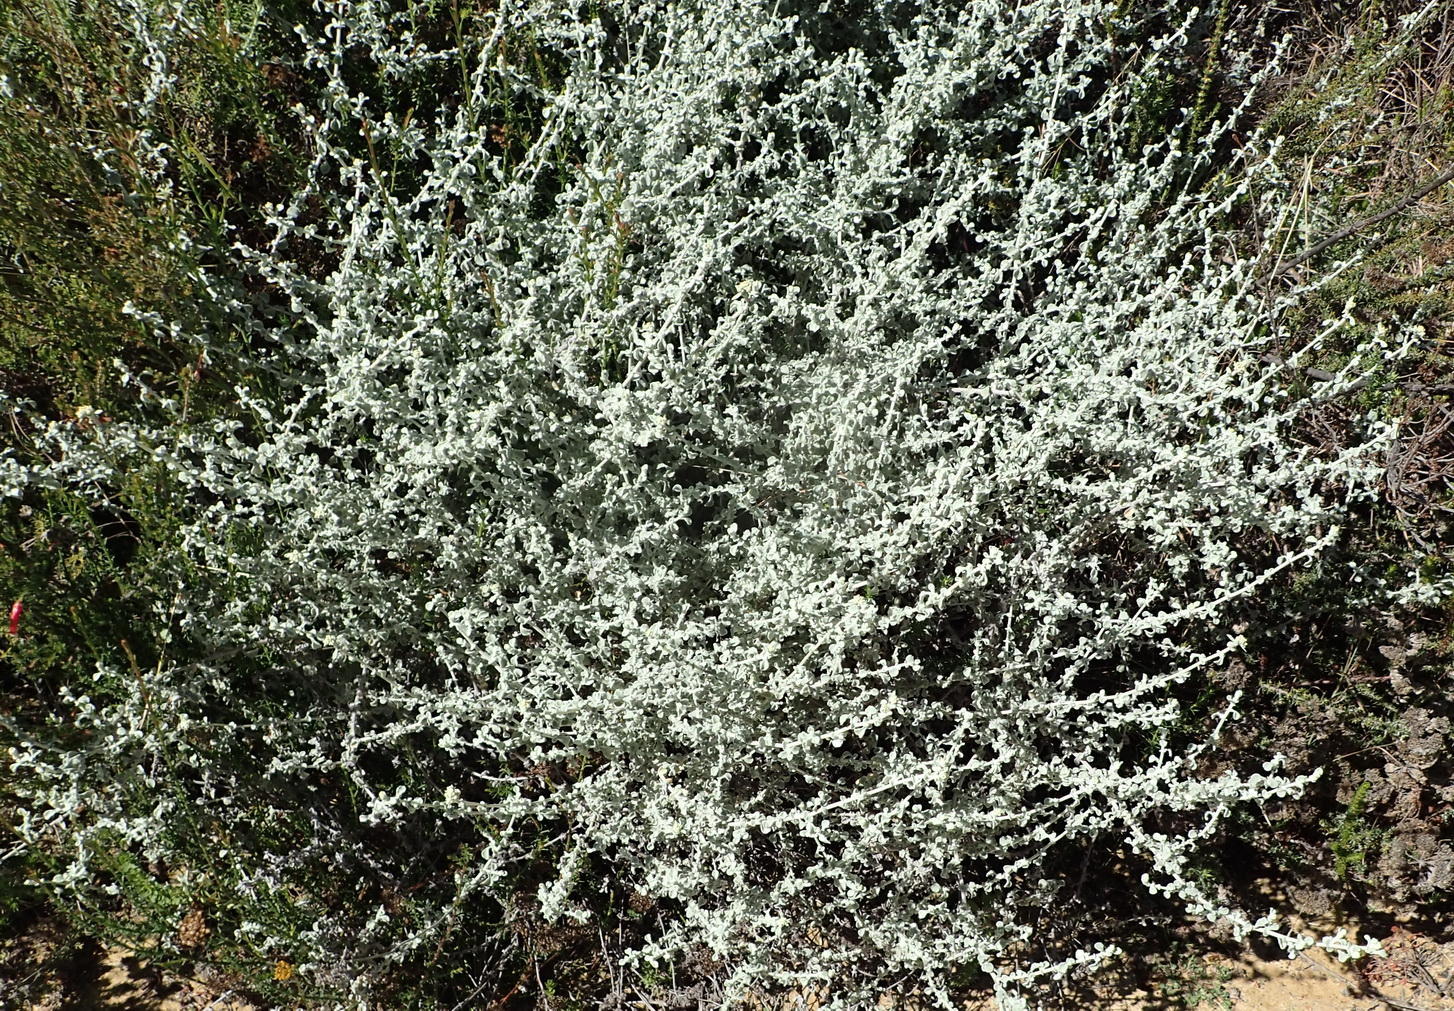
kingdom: Plantae
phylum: Tracheophyta
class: Magnoliopsida
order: Asterales
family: Asteraceae
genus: Helichrysum
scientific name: Helichrysum patulum
